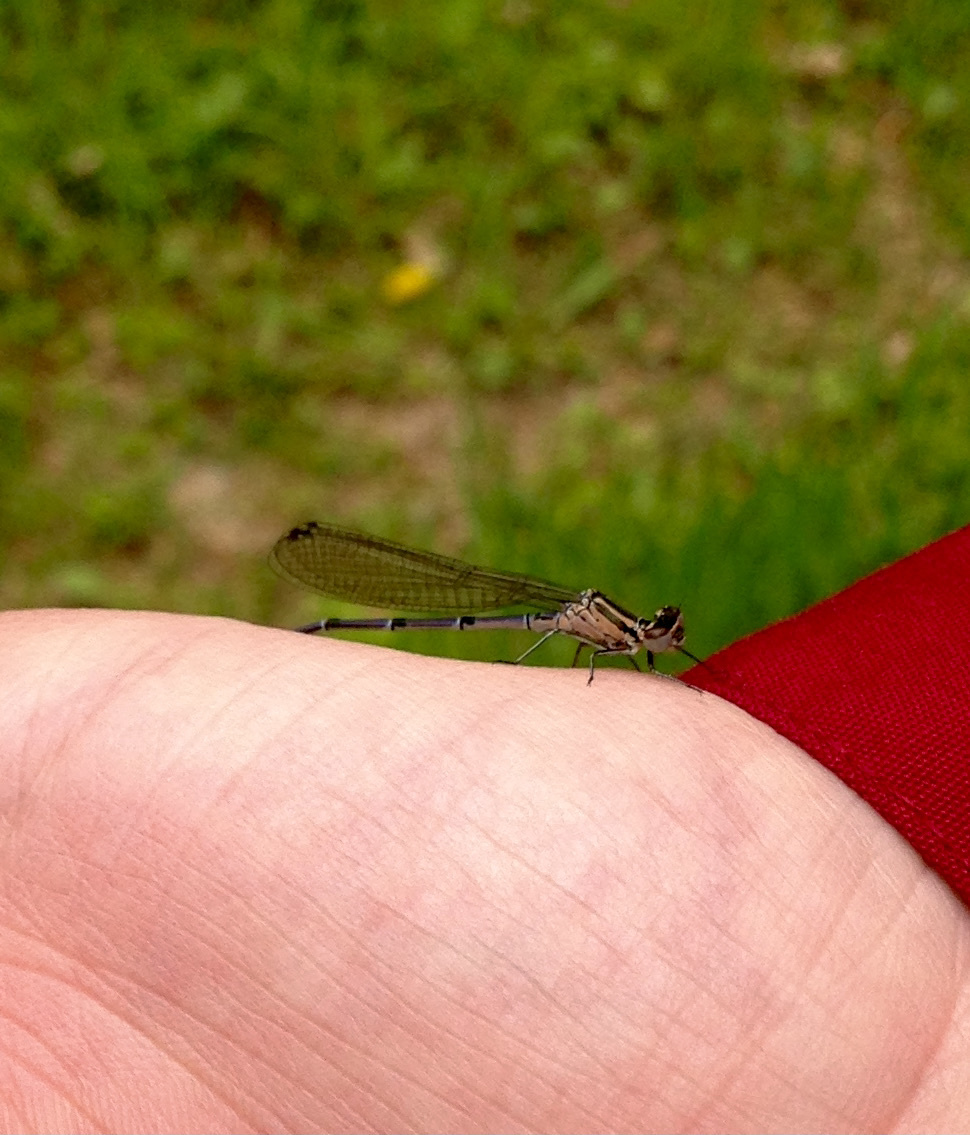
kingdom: Animalia
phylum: Arthropoda
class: Insecta
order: Odonata
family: Coenagrionidae
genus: Coenagrion
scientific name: Coenagrion puella
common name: Azure damselfly
